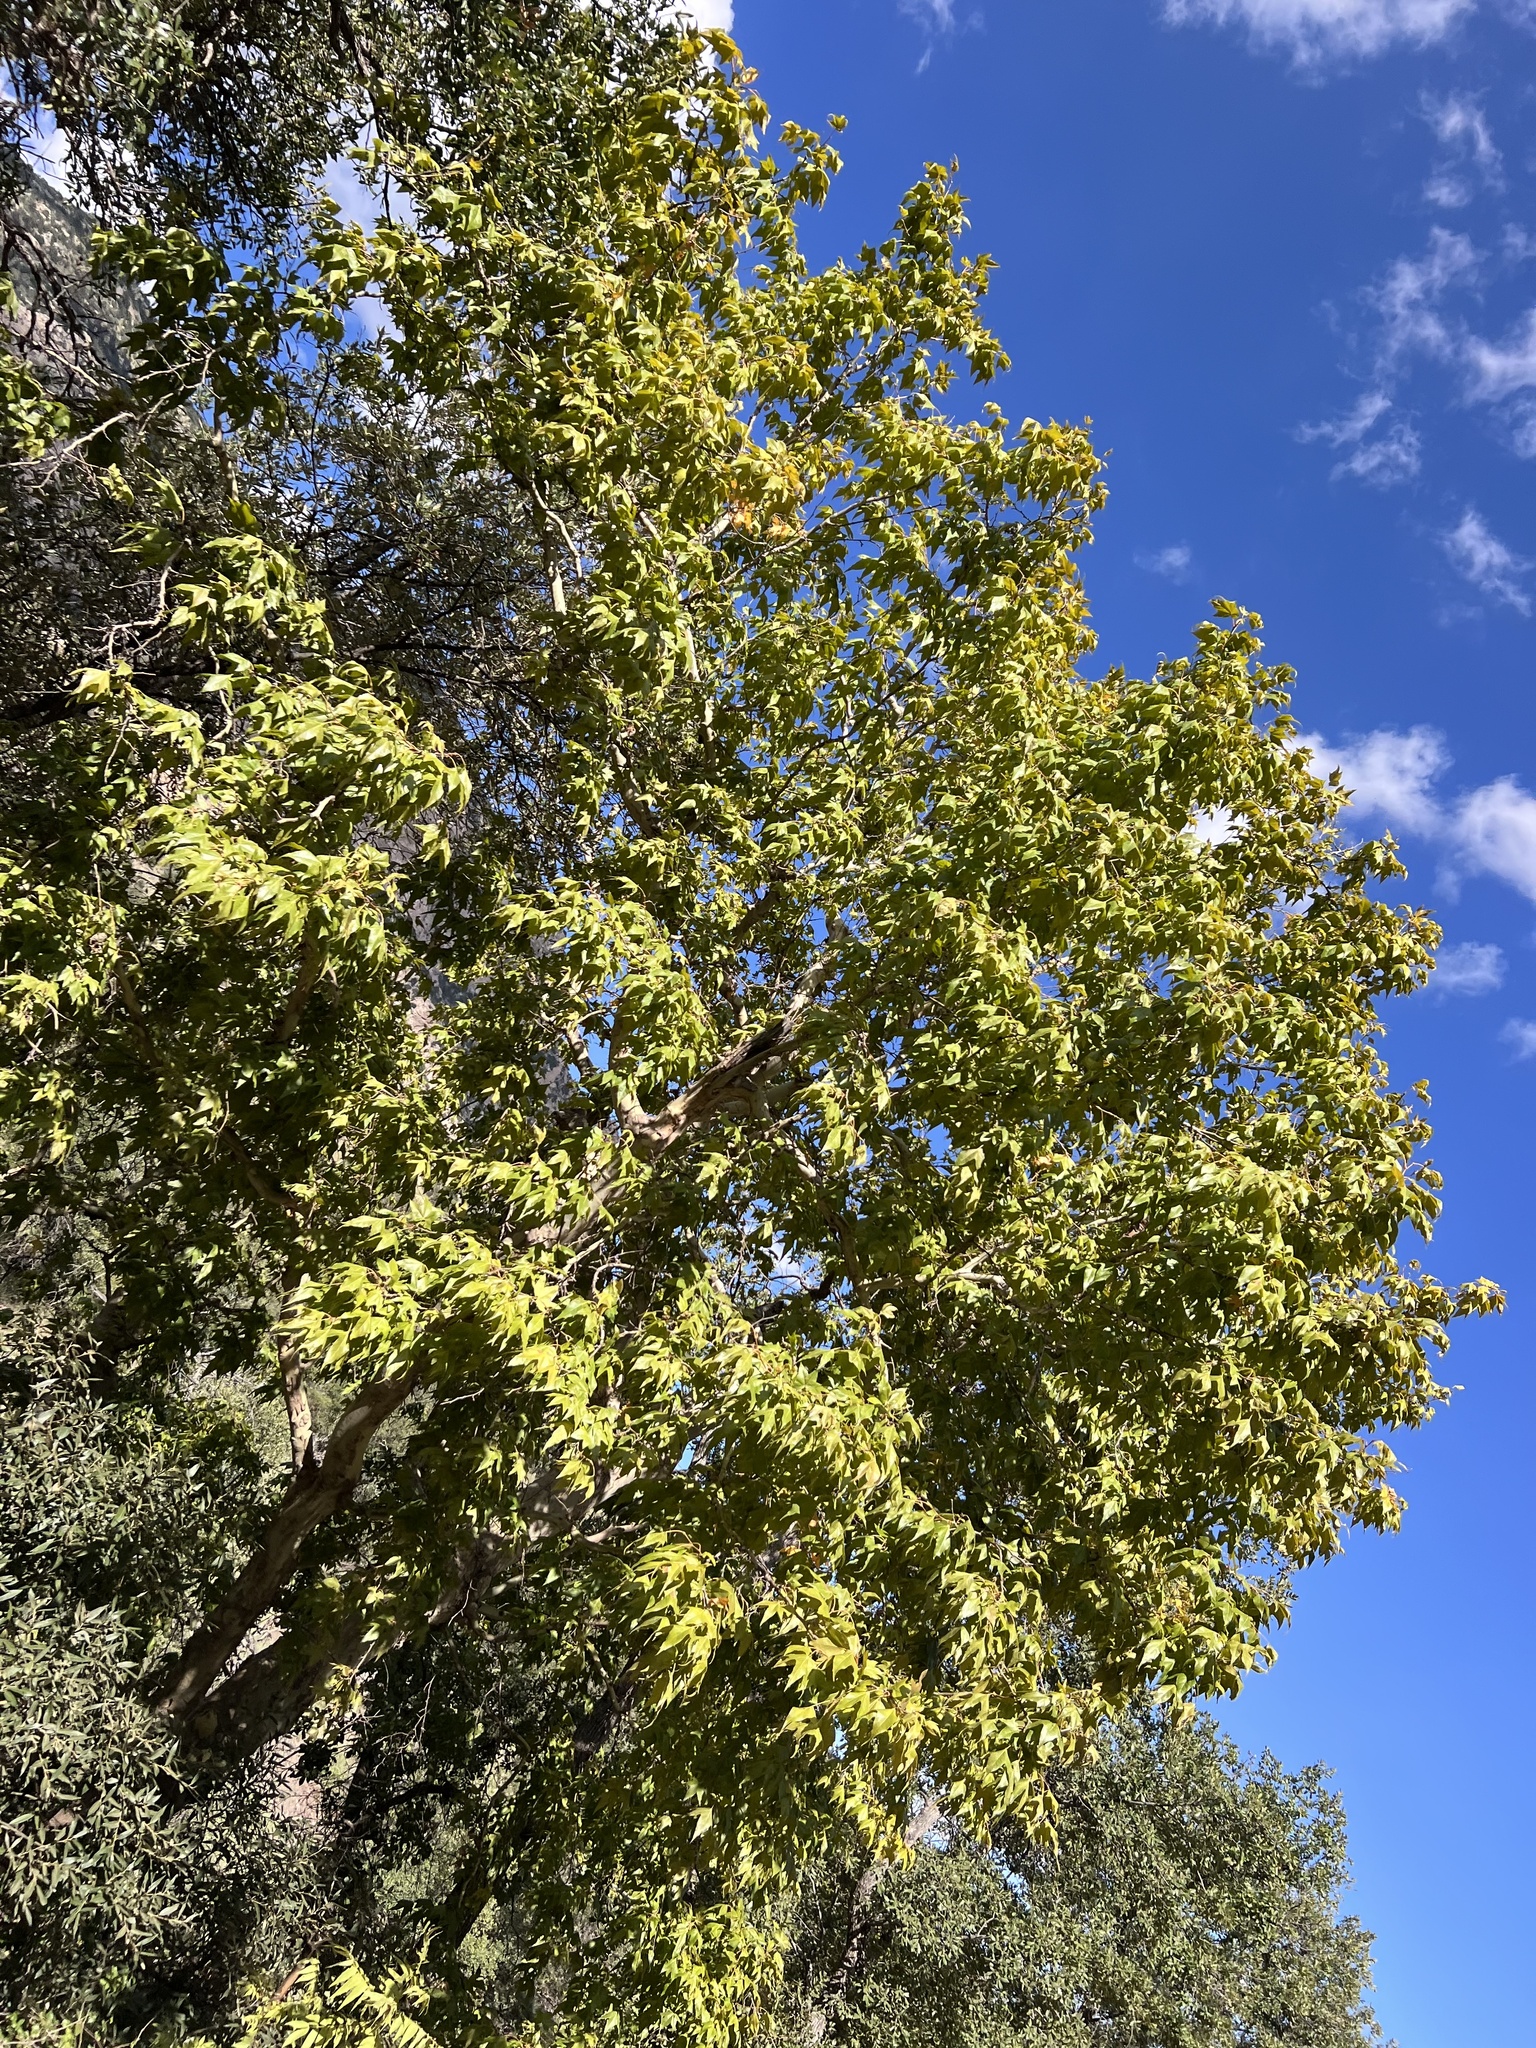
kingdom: Plantae
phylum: Tracheophyta
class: Magnoliopsida
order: Proteales
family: Platanaceae
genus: Platanus
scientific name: Platanus wrightii
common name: Arizona sycamore
